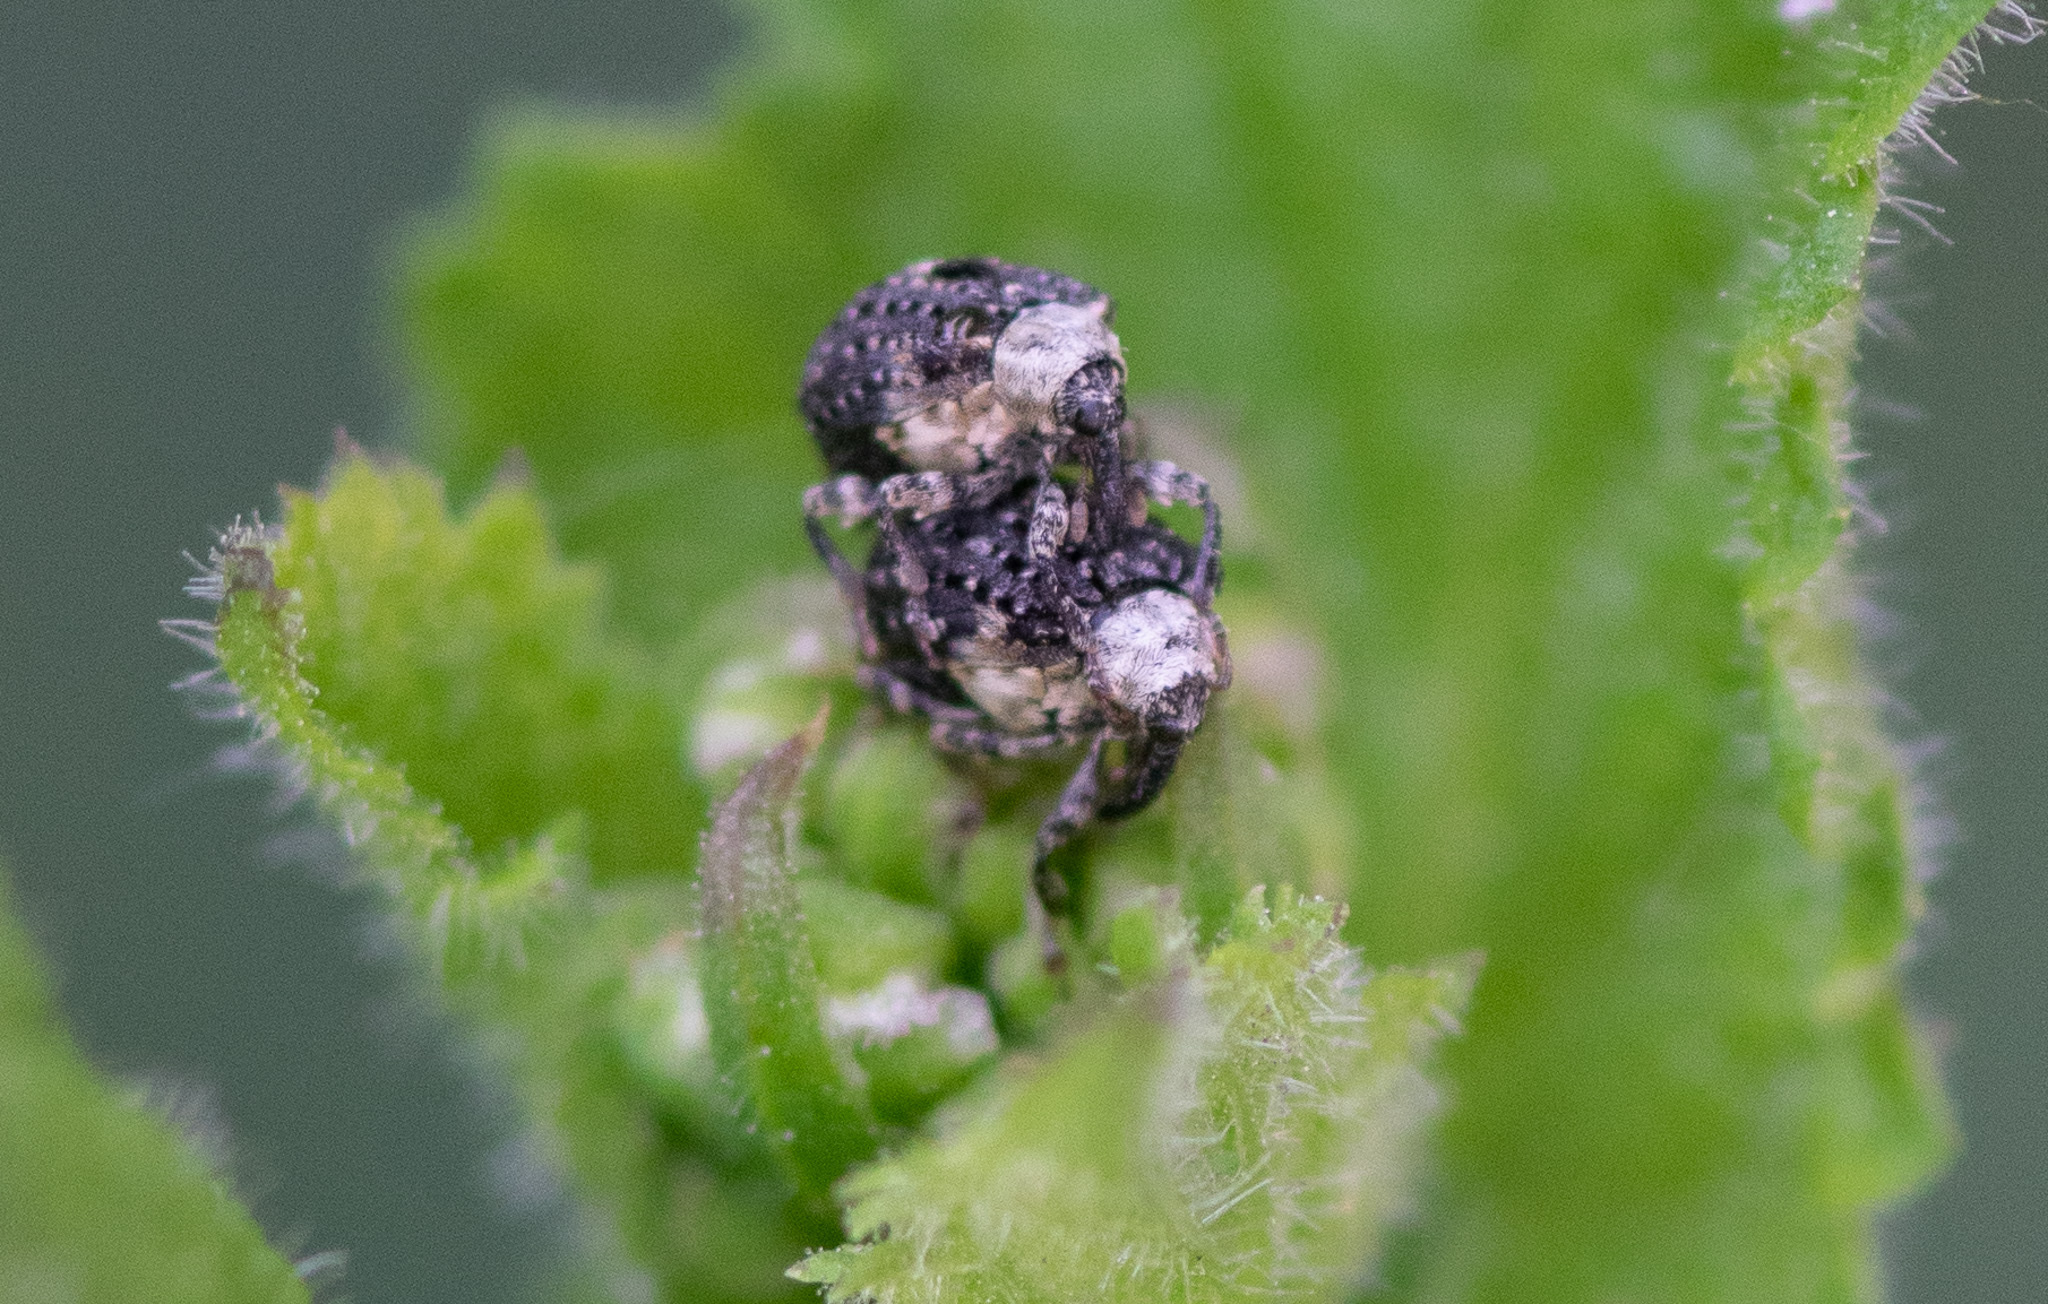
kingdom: Animalia
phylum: Arthropoda
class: Insecta
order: Coleoptera
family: Curculionidae
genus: Cionus
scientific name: Cionus scrophulariae
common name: Common figwort weevil
